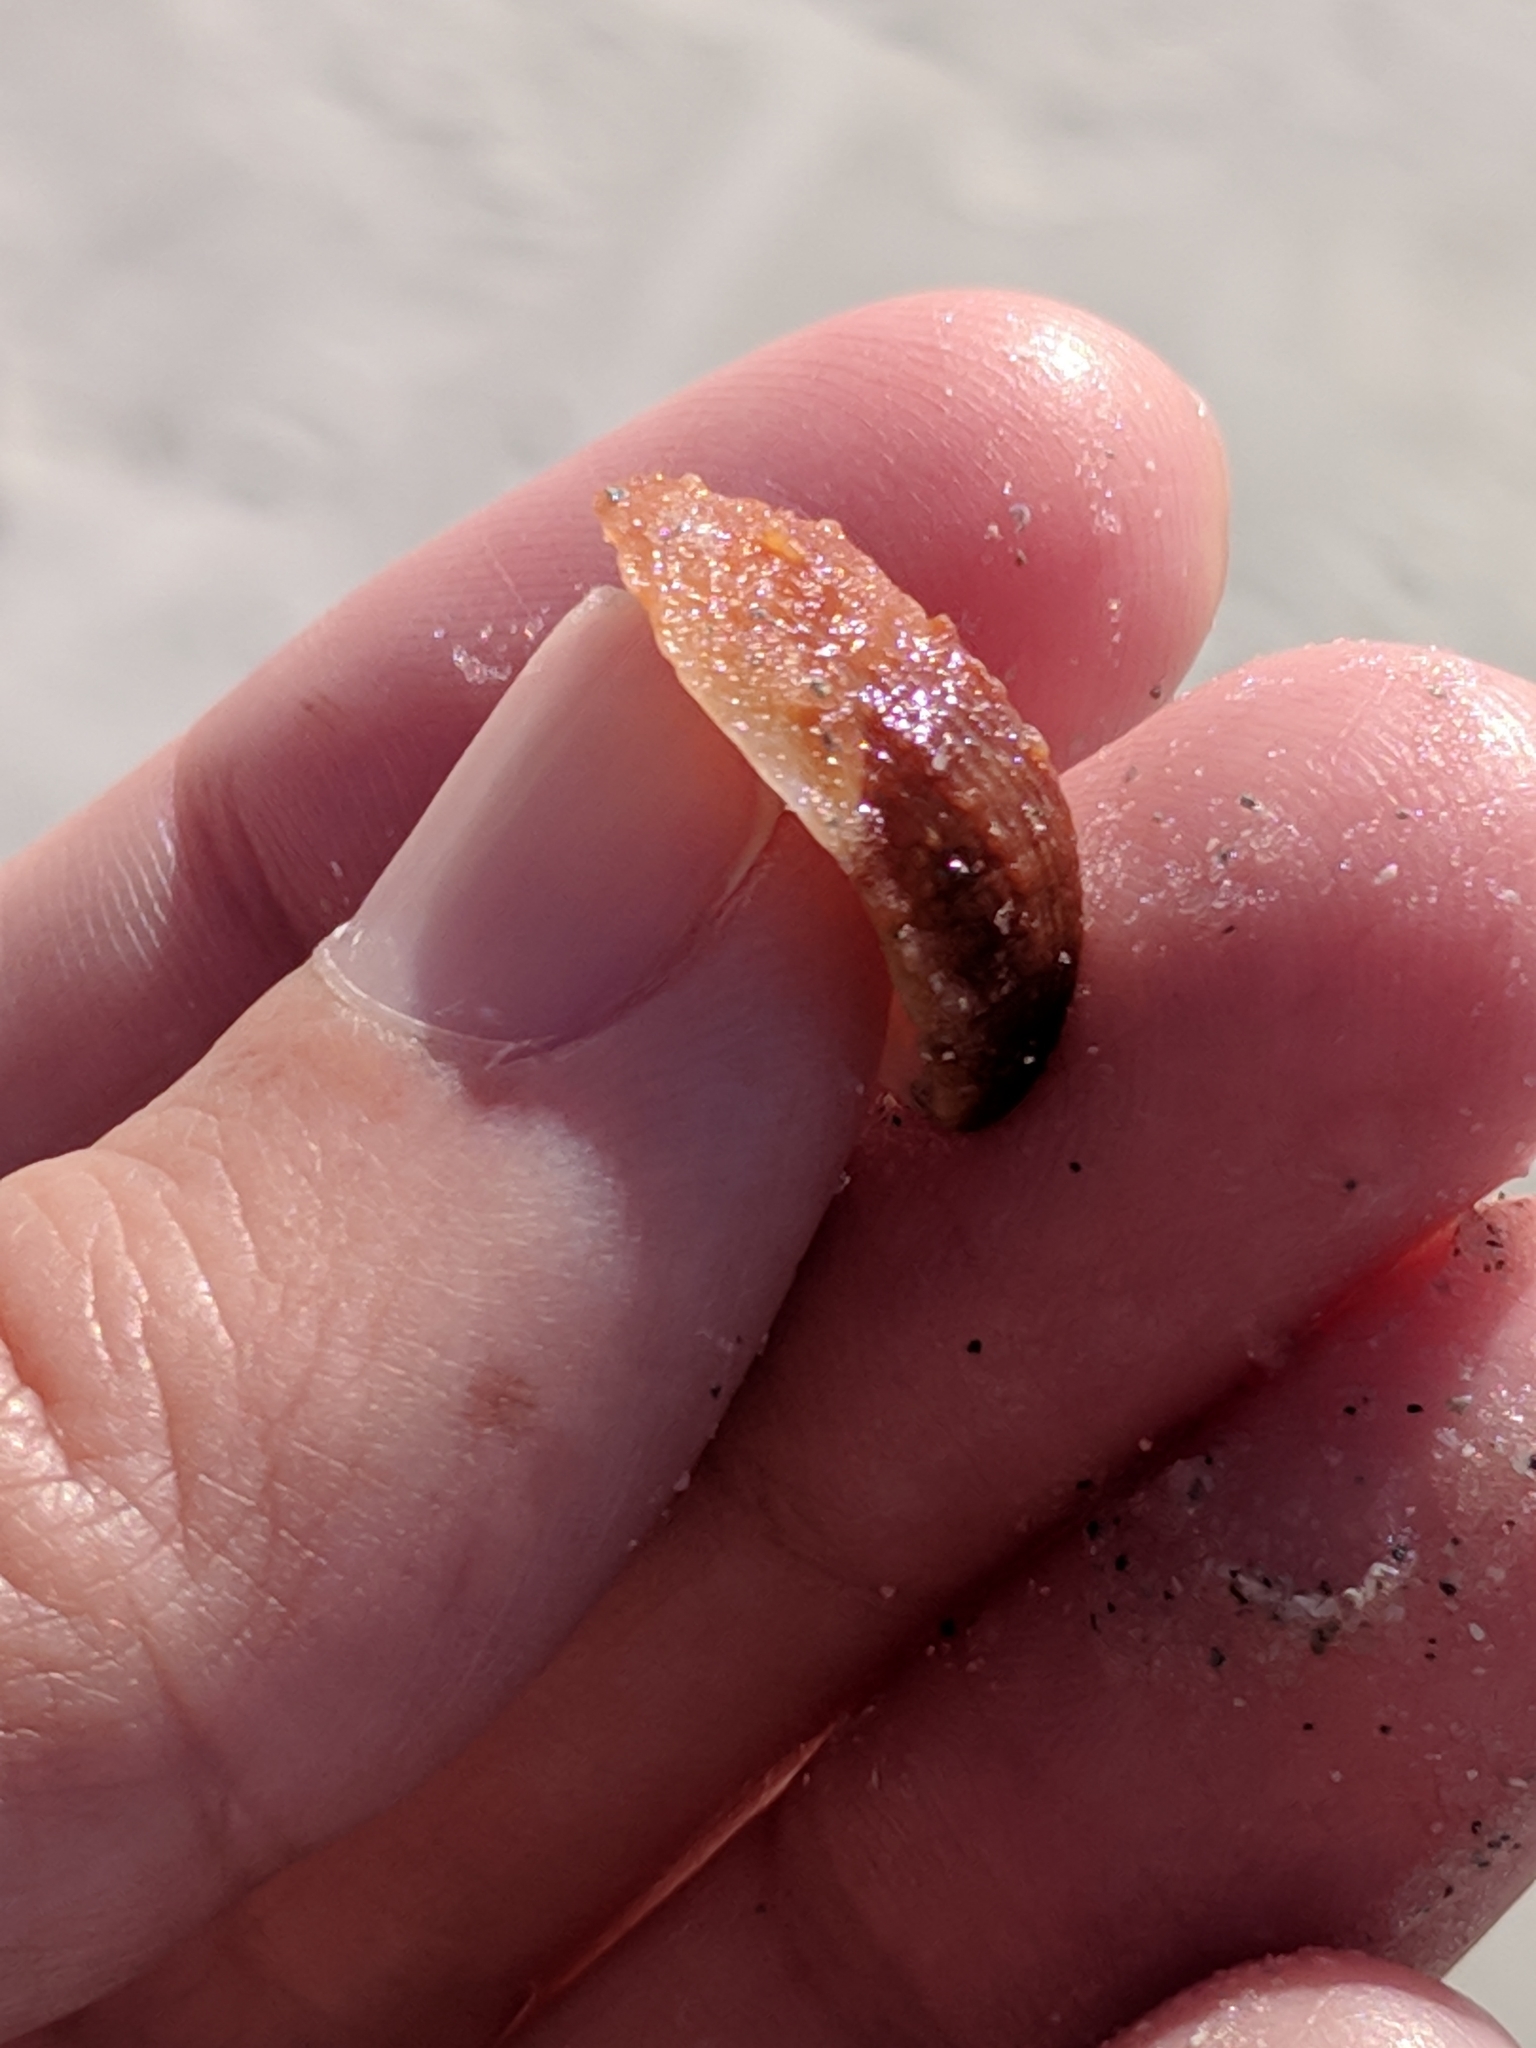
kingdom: Animalia
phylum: Mollusca
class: Gastropoda
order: Littorinimorpha
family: Calyptraeidae
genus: Bostrycapulus
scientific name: Bostrycapulus aculeatus
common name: Spiny slippersnail
